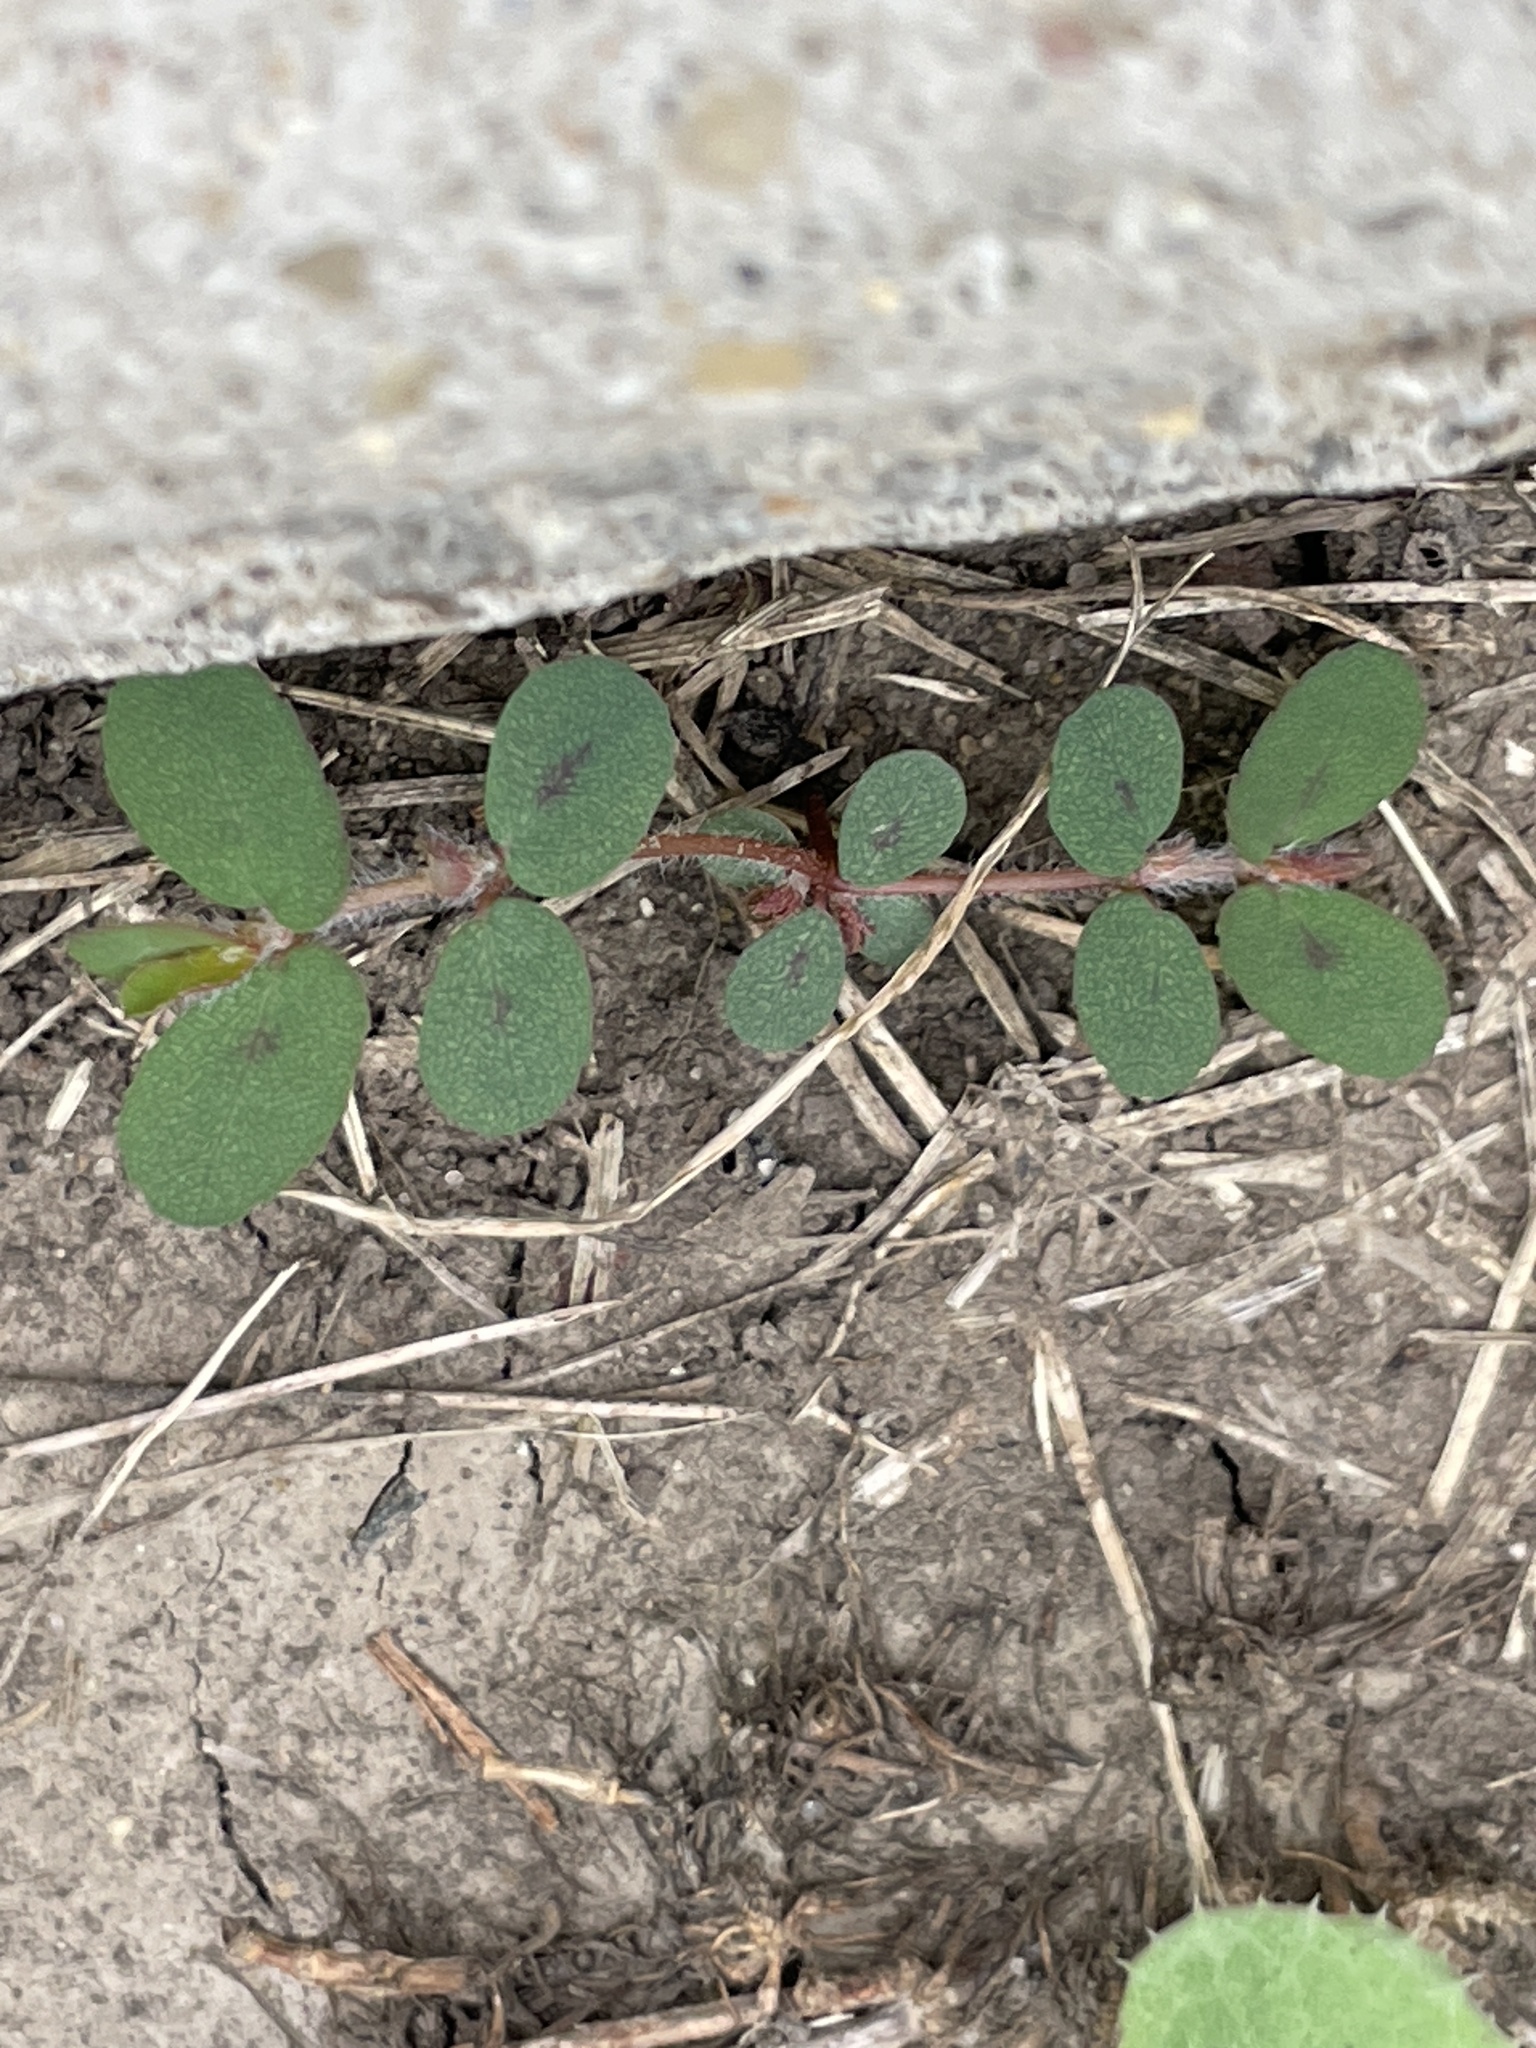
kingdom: Plantae
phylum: Tracheophyta
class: Magnoliopsida
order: Malpighiales
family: Euphorbiaceae
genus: Euphorbia
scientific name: Euphorbia maculata
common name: Spotted spurge
